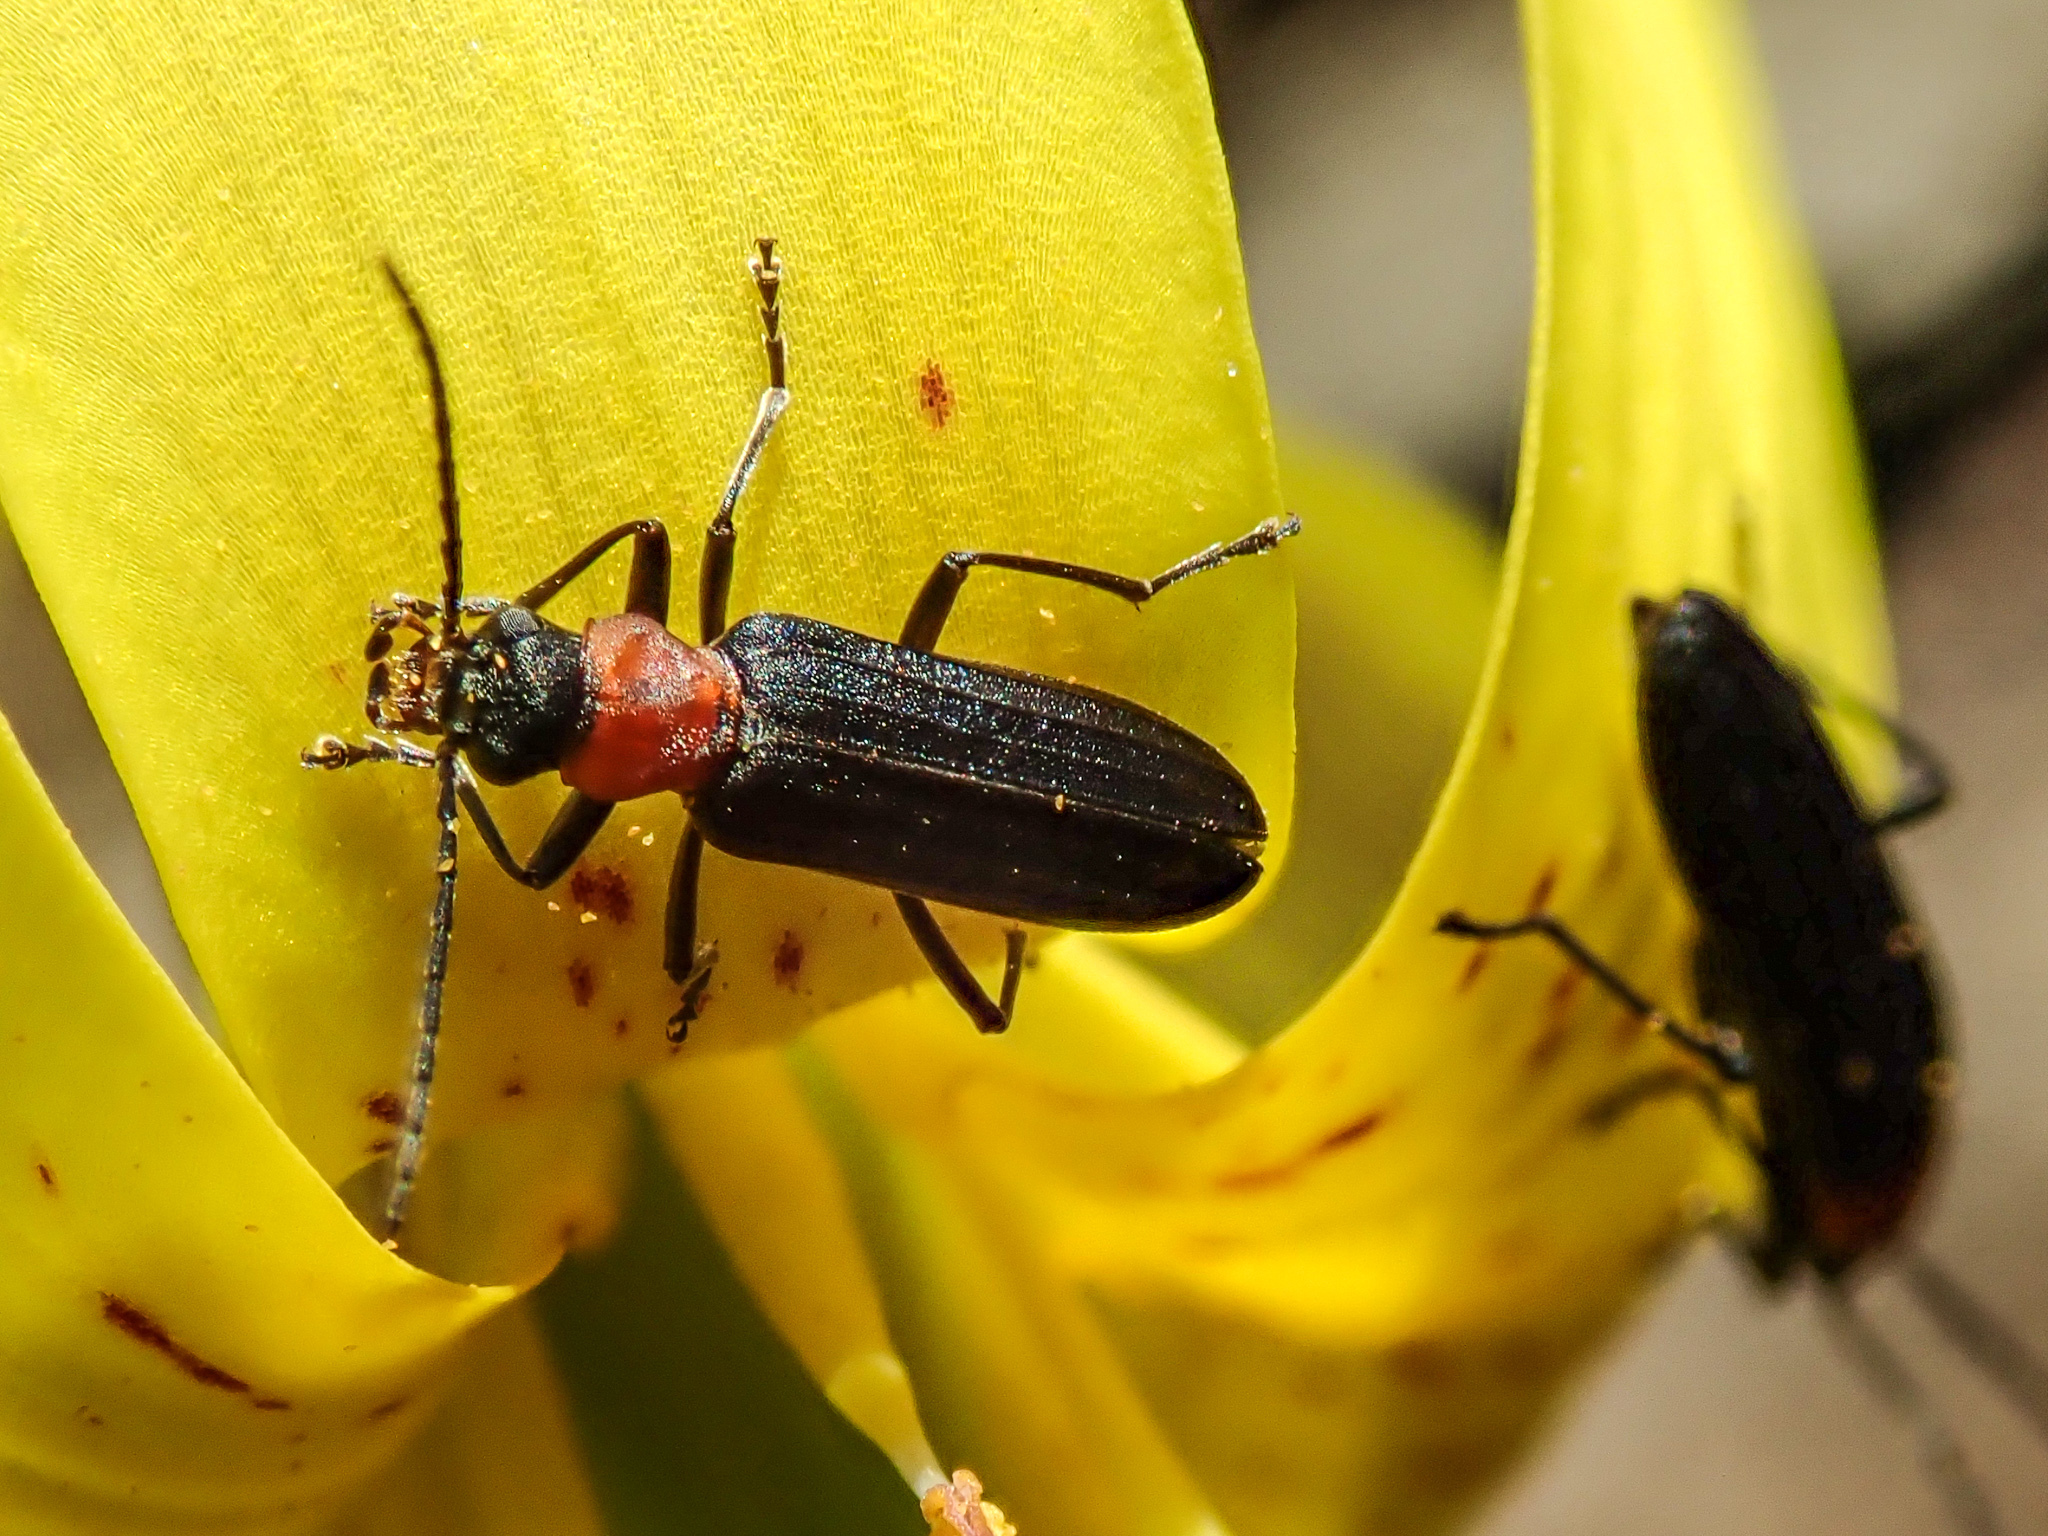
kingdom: Animalia
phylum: Arthropoda
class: Insecta
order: Coleoptera
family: Oedemeridae
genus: Ischnomera
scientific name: Ischnomera
